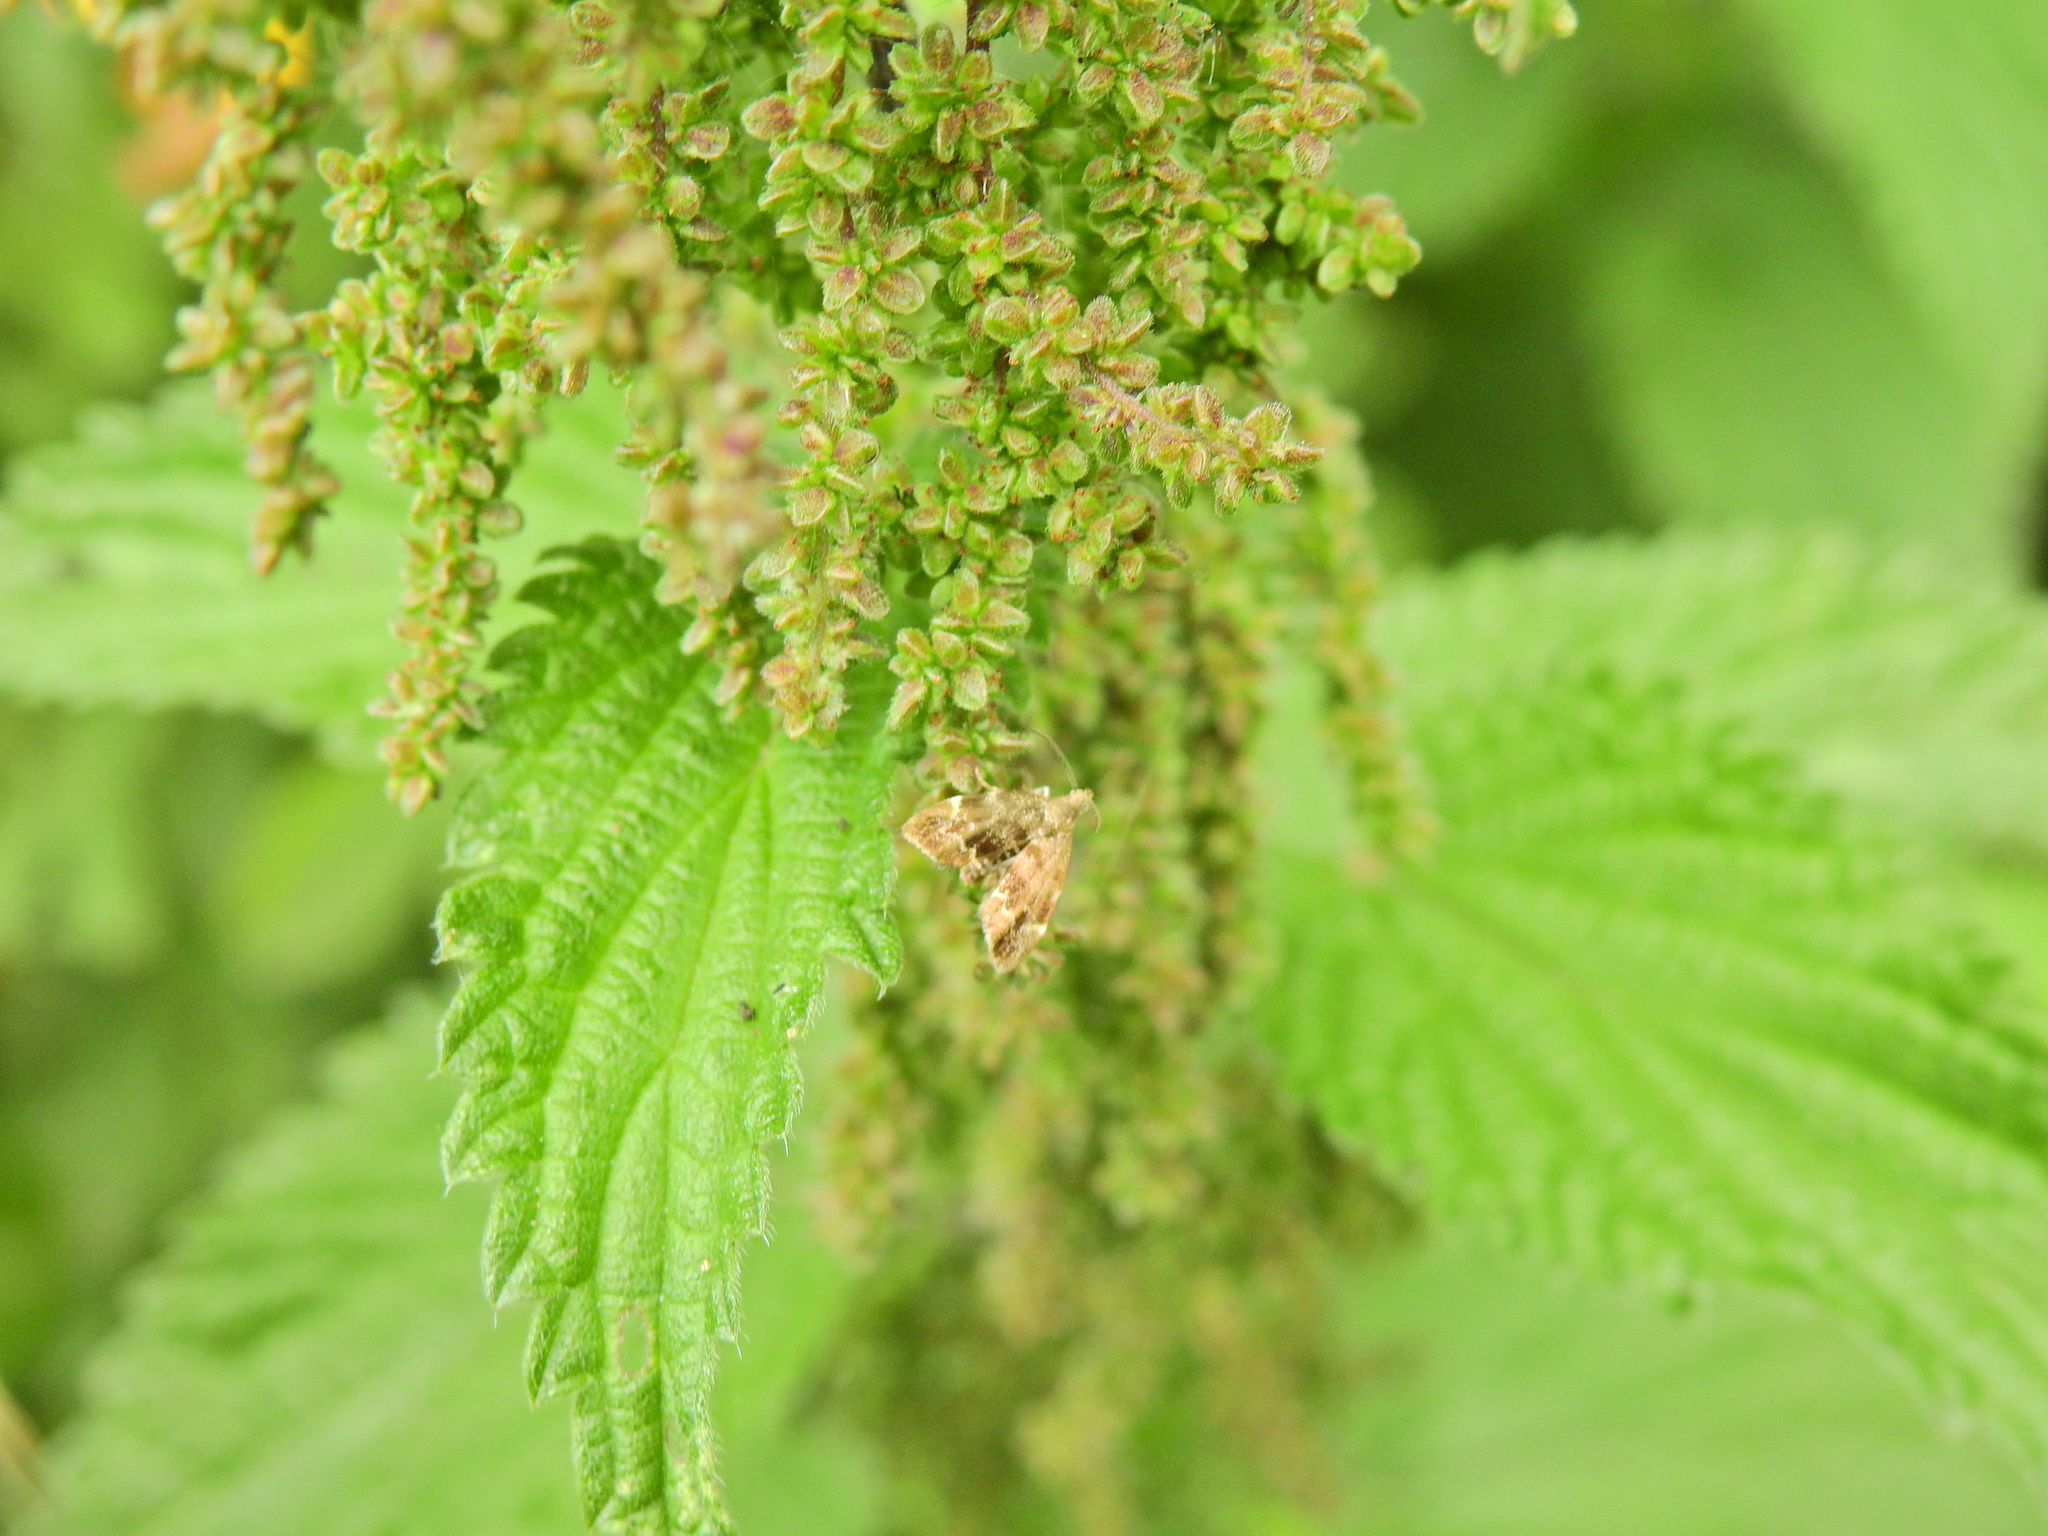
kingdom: Animalia
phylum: Arthropoda
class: Insecta
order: Lepidoptera
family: Choreutidae
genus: Anthophila
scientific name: Anthophila fabriciana
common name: Nettle-tap
